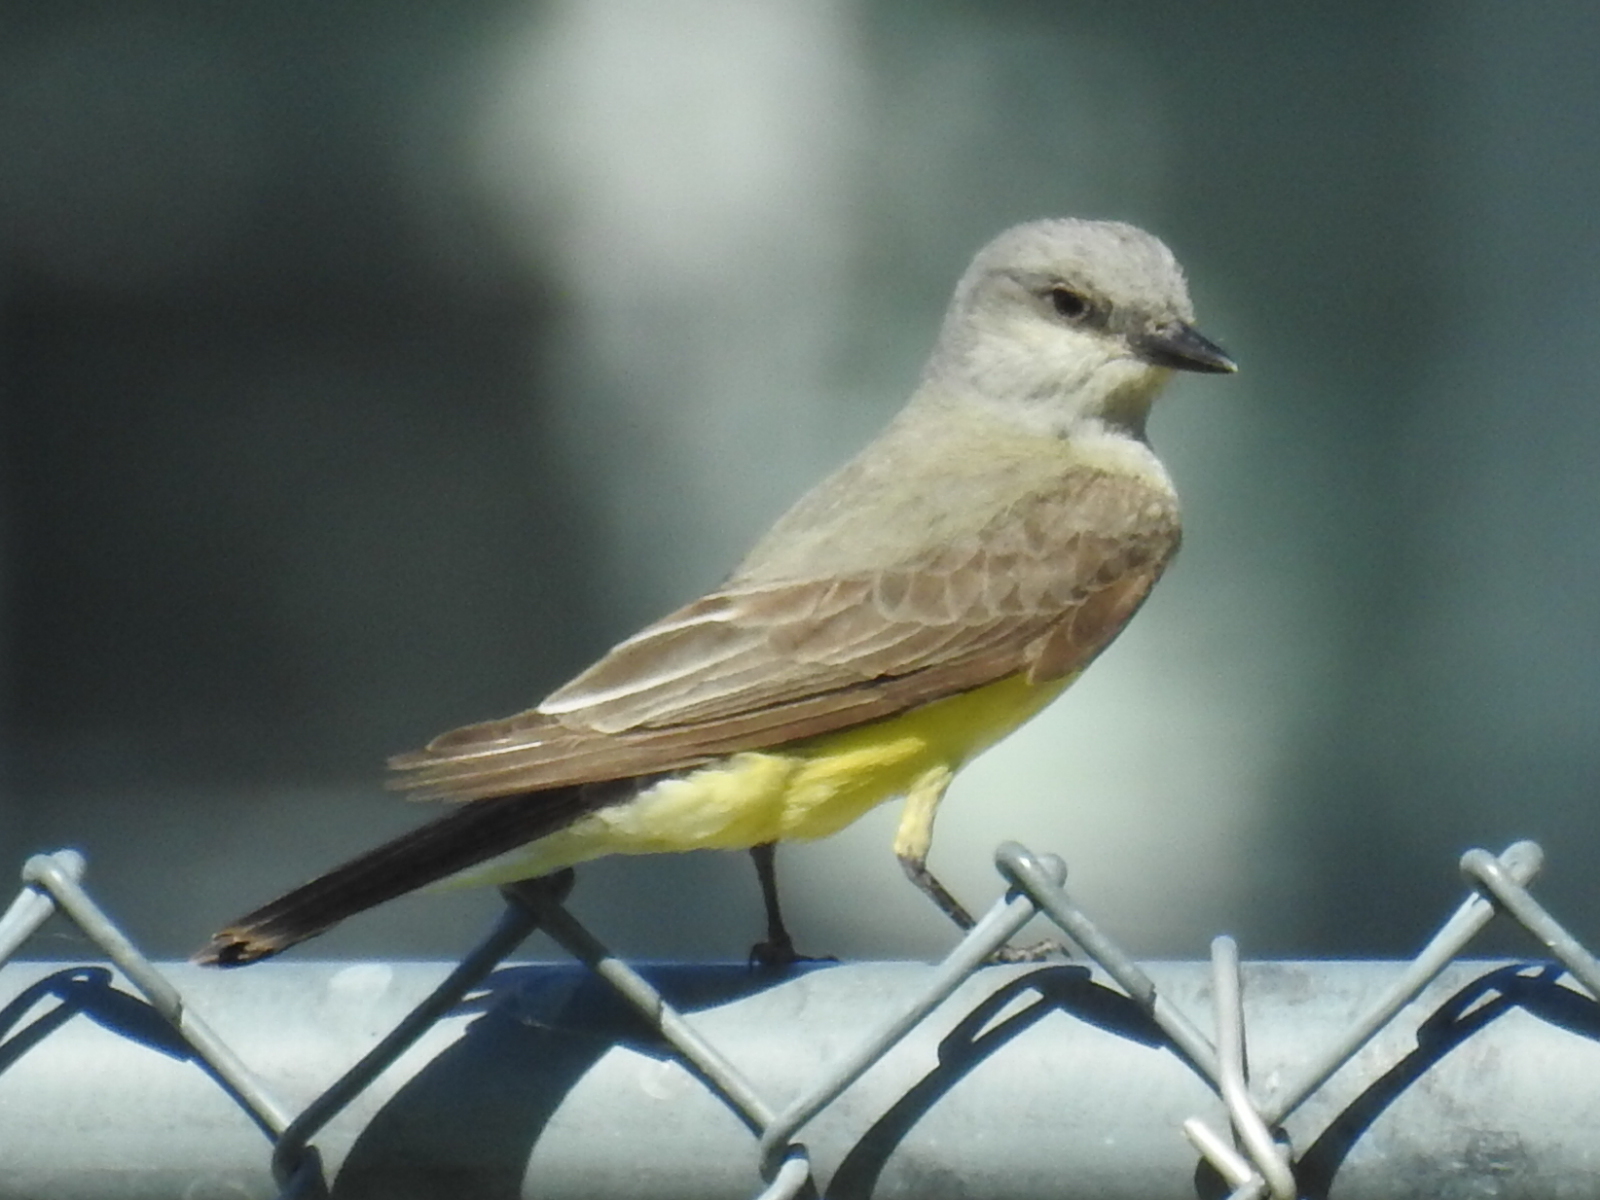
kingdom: Animalia
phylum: Chordata
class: Aves
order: Passeriformes
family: Tyrannidae
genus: Tyrannus
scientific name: Tyrannus verticalis
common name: Western kingbird
